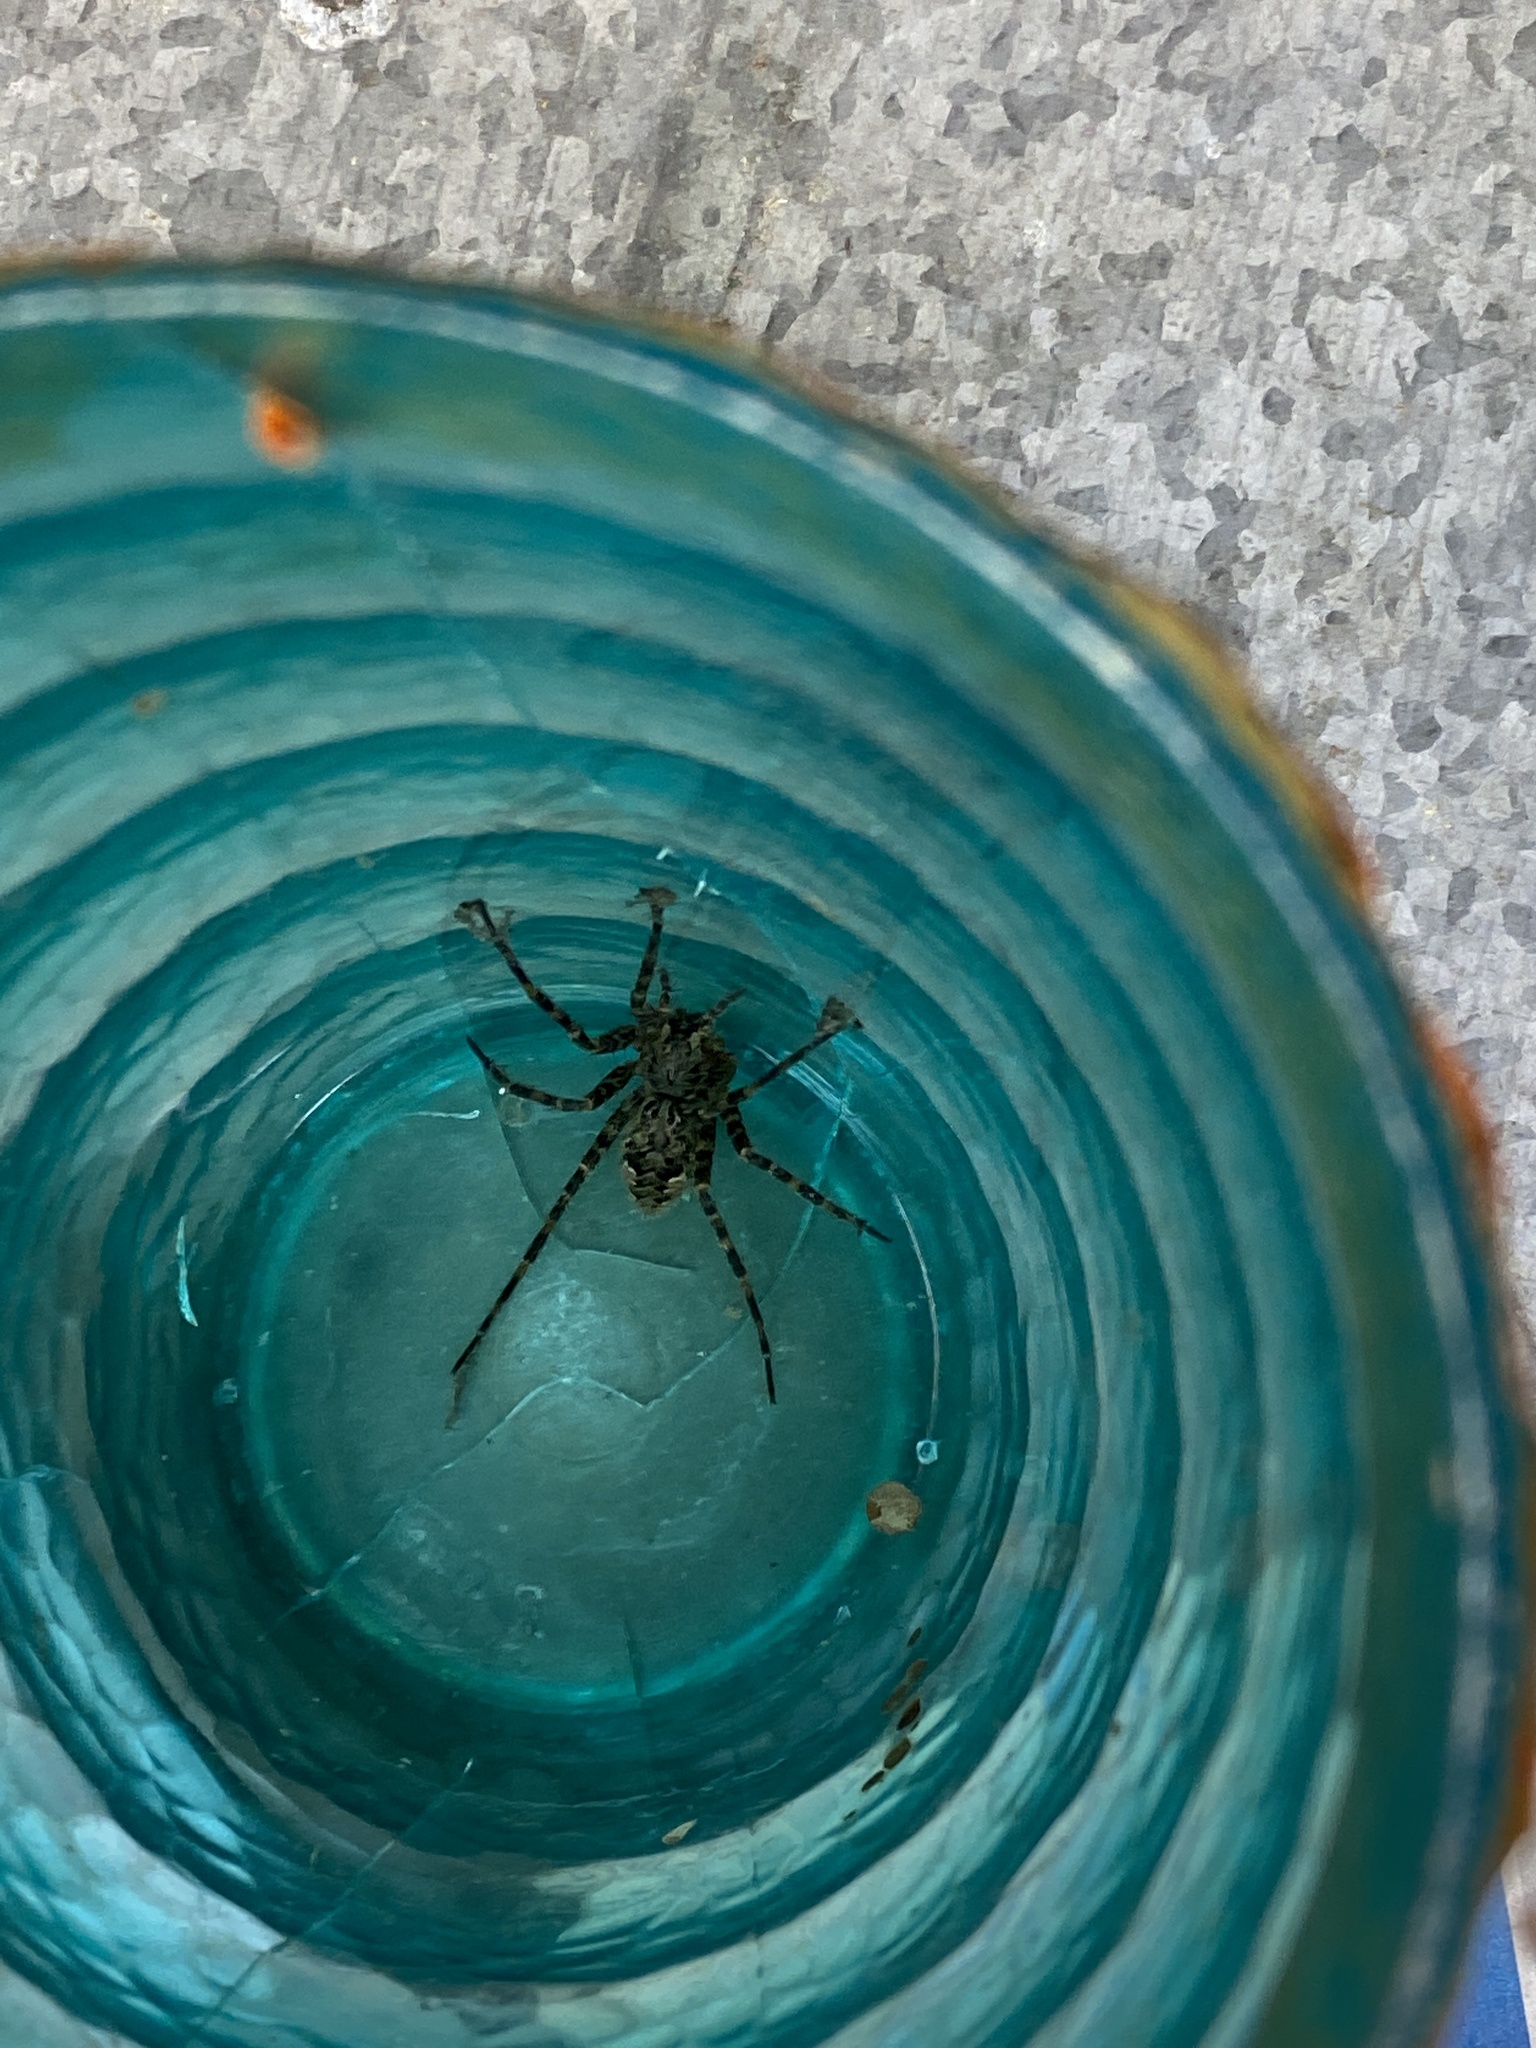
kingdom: Animalia
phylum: Arthropoda
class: Arachnida
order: Araneae
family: Pisauridae
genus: Dolomedes
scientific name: Dolomedes tenebrosus
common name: Dark fishing spider
